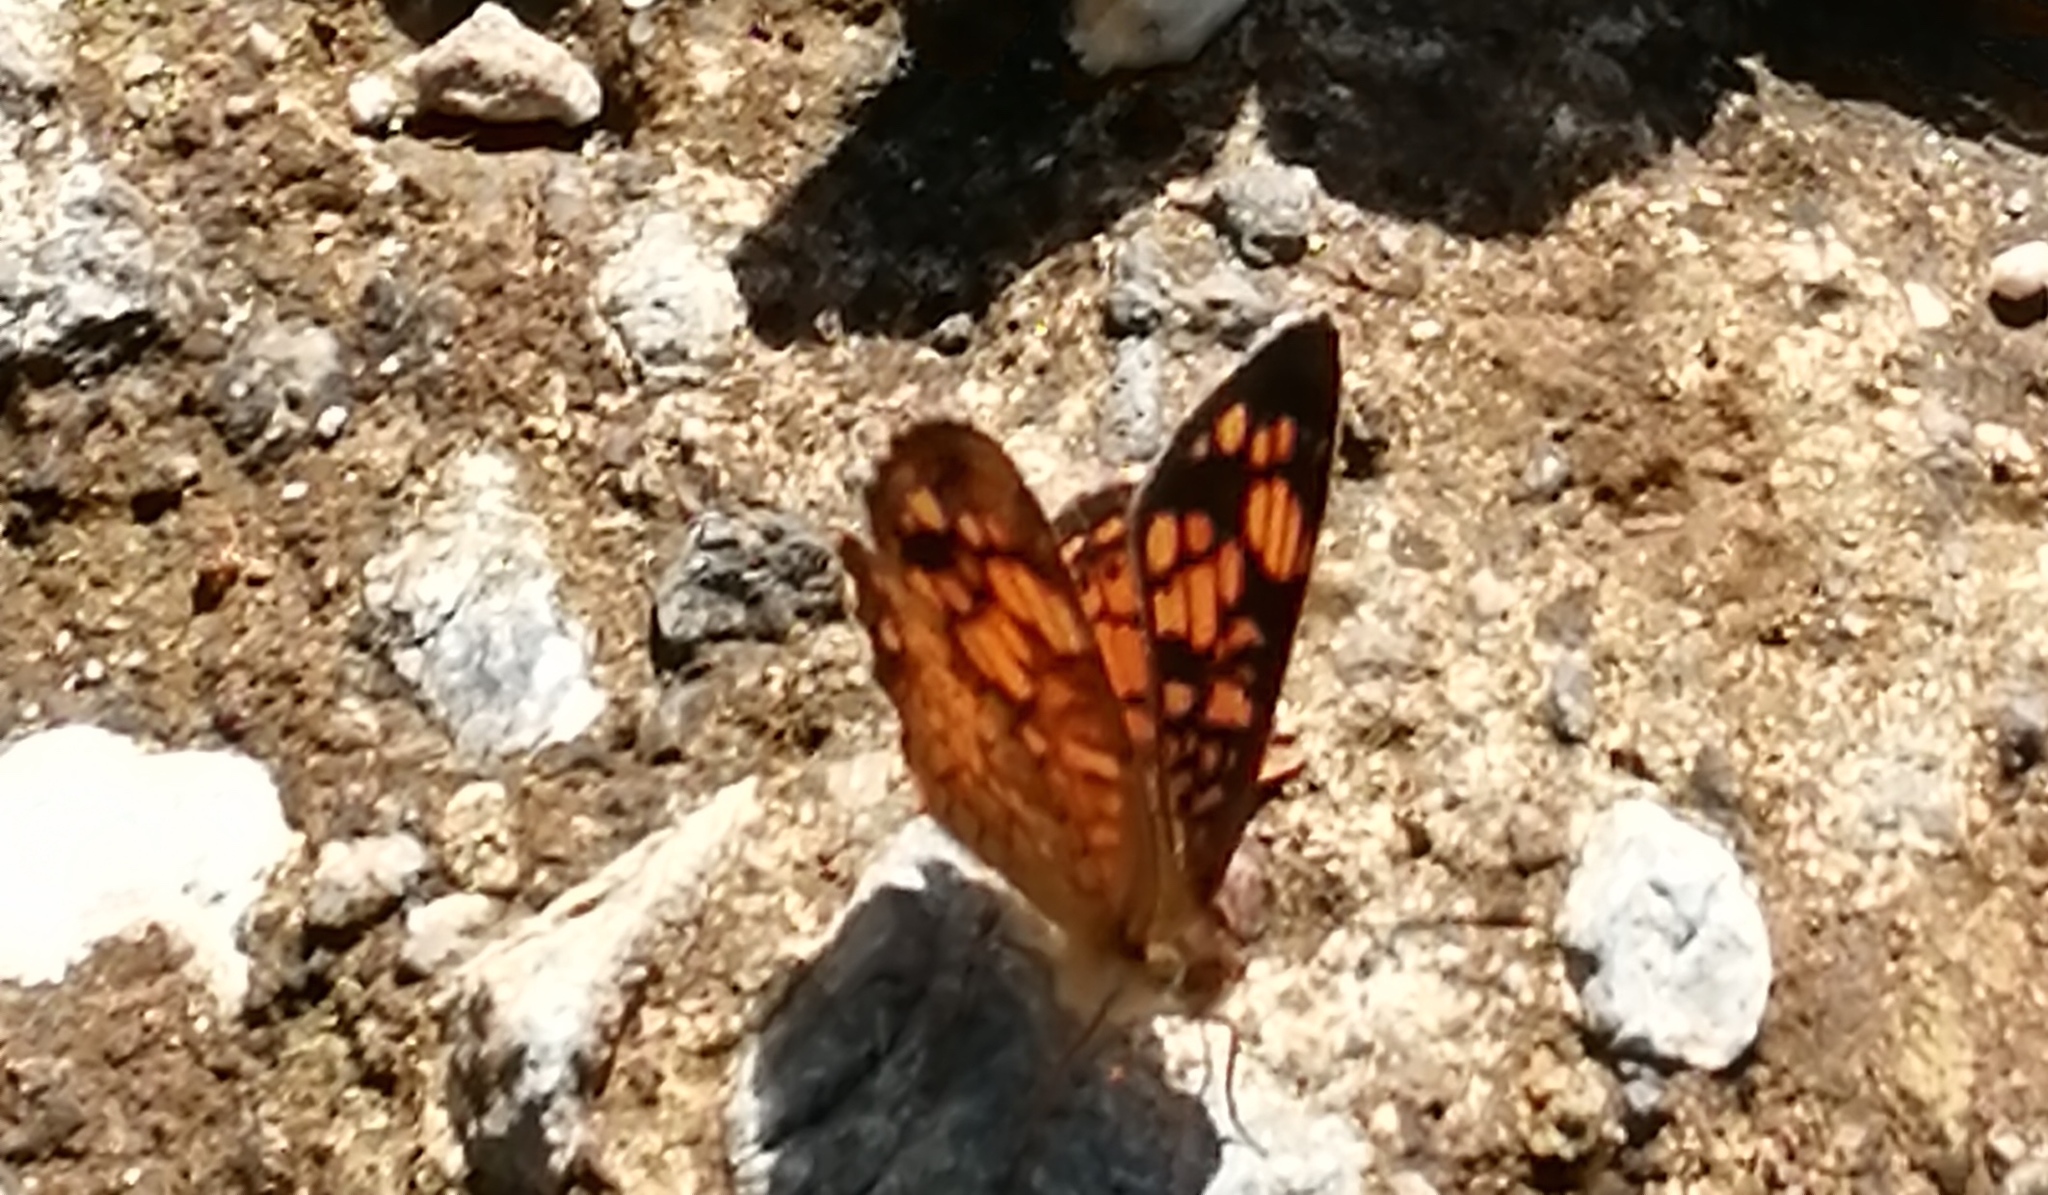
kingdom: Animalia
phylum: Arthropoda
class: Insecta
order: Lepidoptera
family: Nymphalidae
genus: Phyciodes
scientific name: Phyciodes vesta
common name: Vesta crescent
